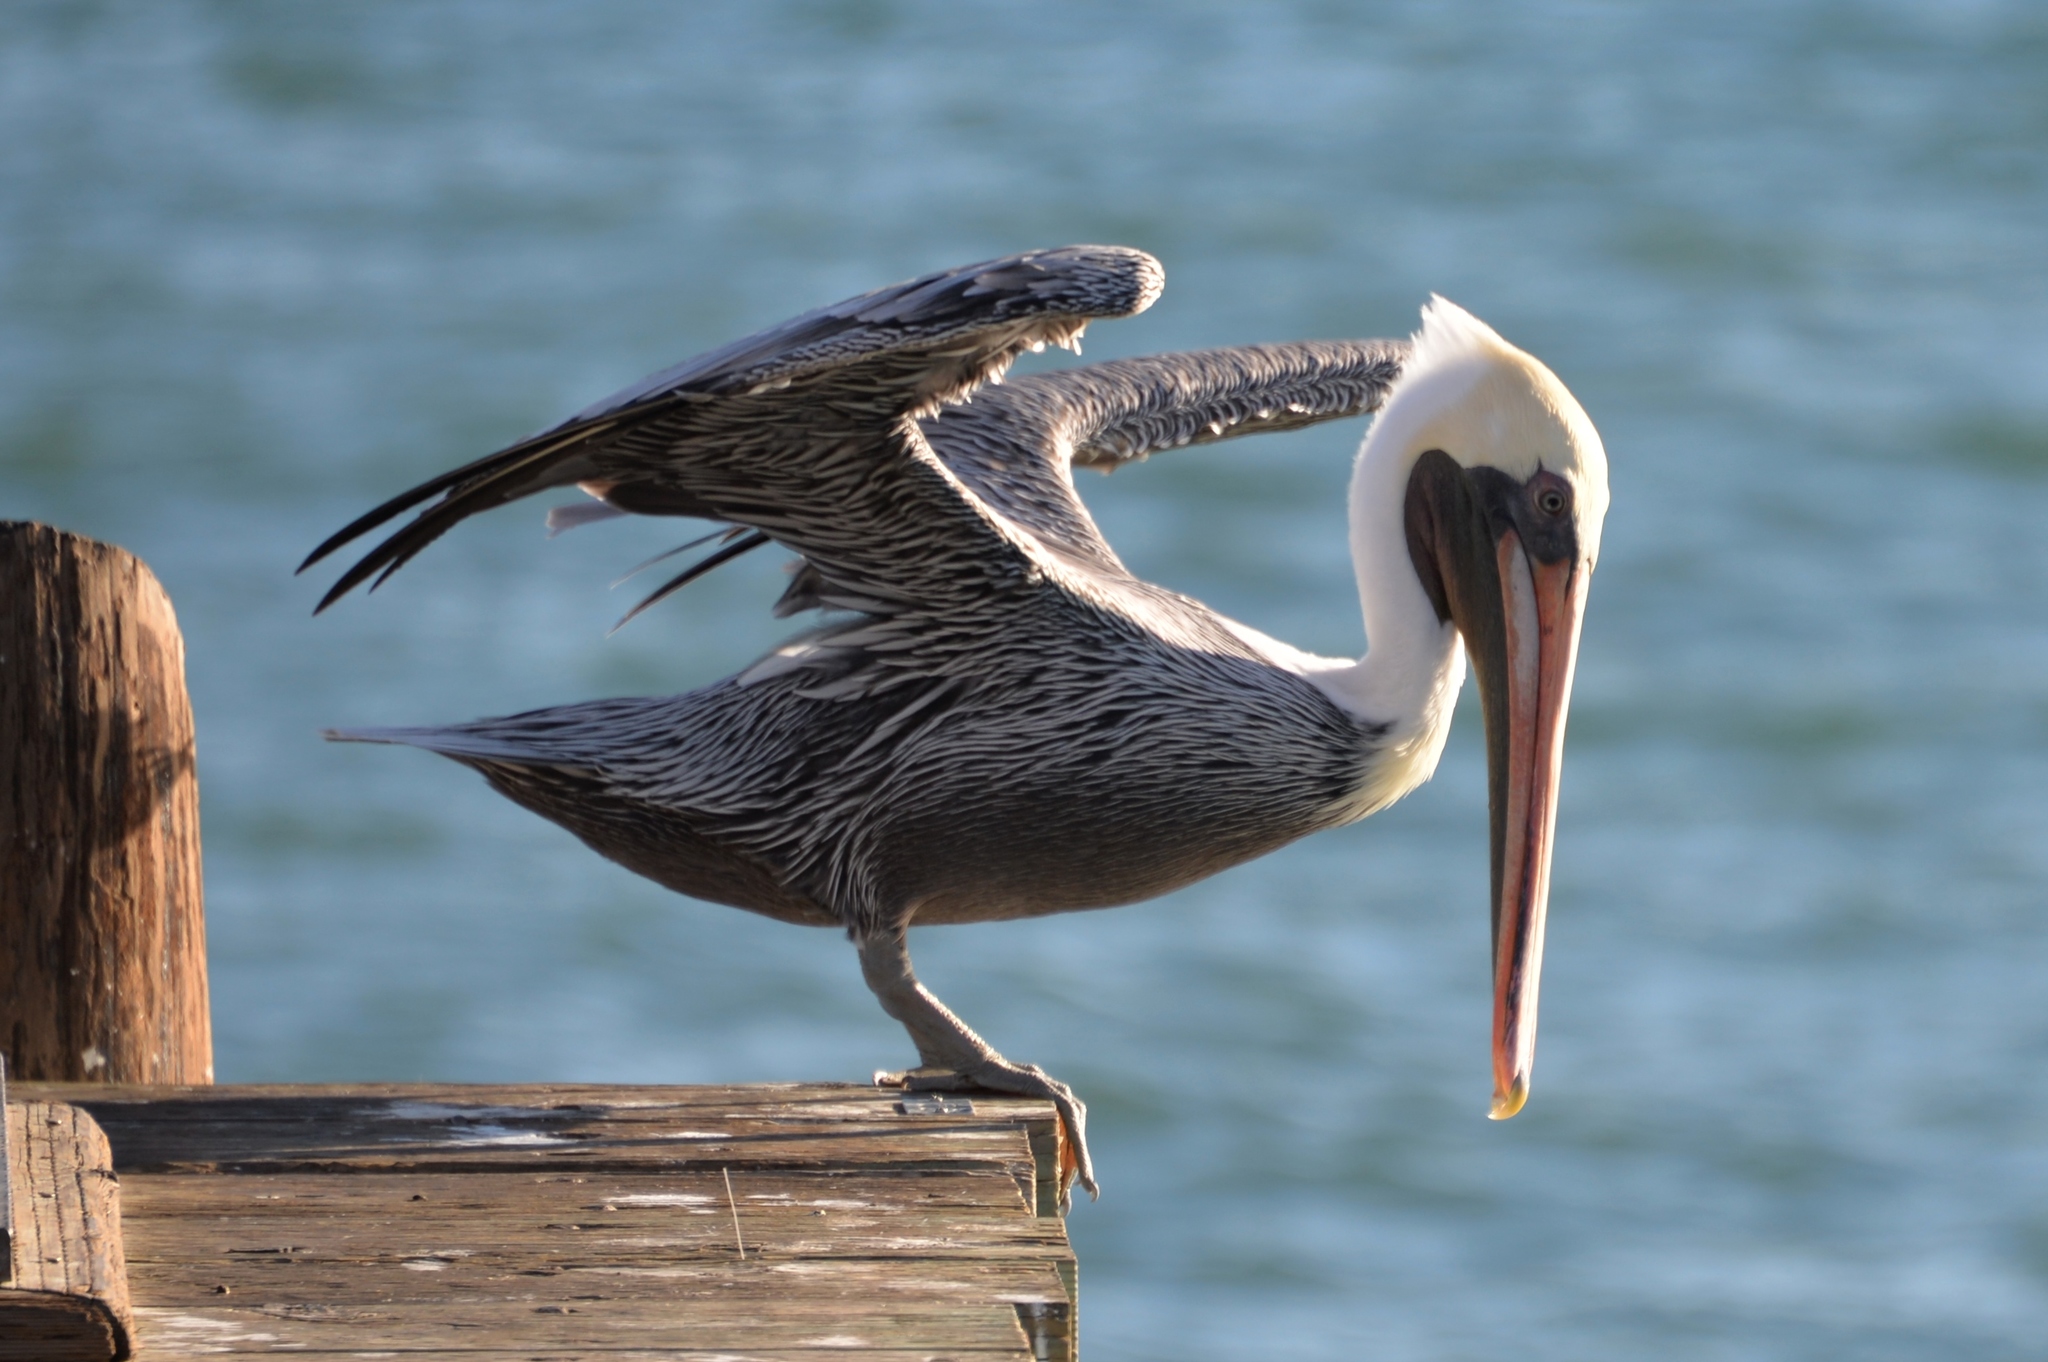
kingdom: Animalia
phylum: Chordata
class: Aves
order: Pelecaniformes
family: Pelecanidae
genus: Pelecanus
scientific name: Pelecanus occidentalis
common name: Brown pelican
